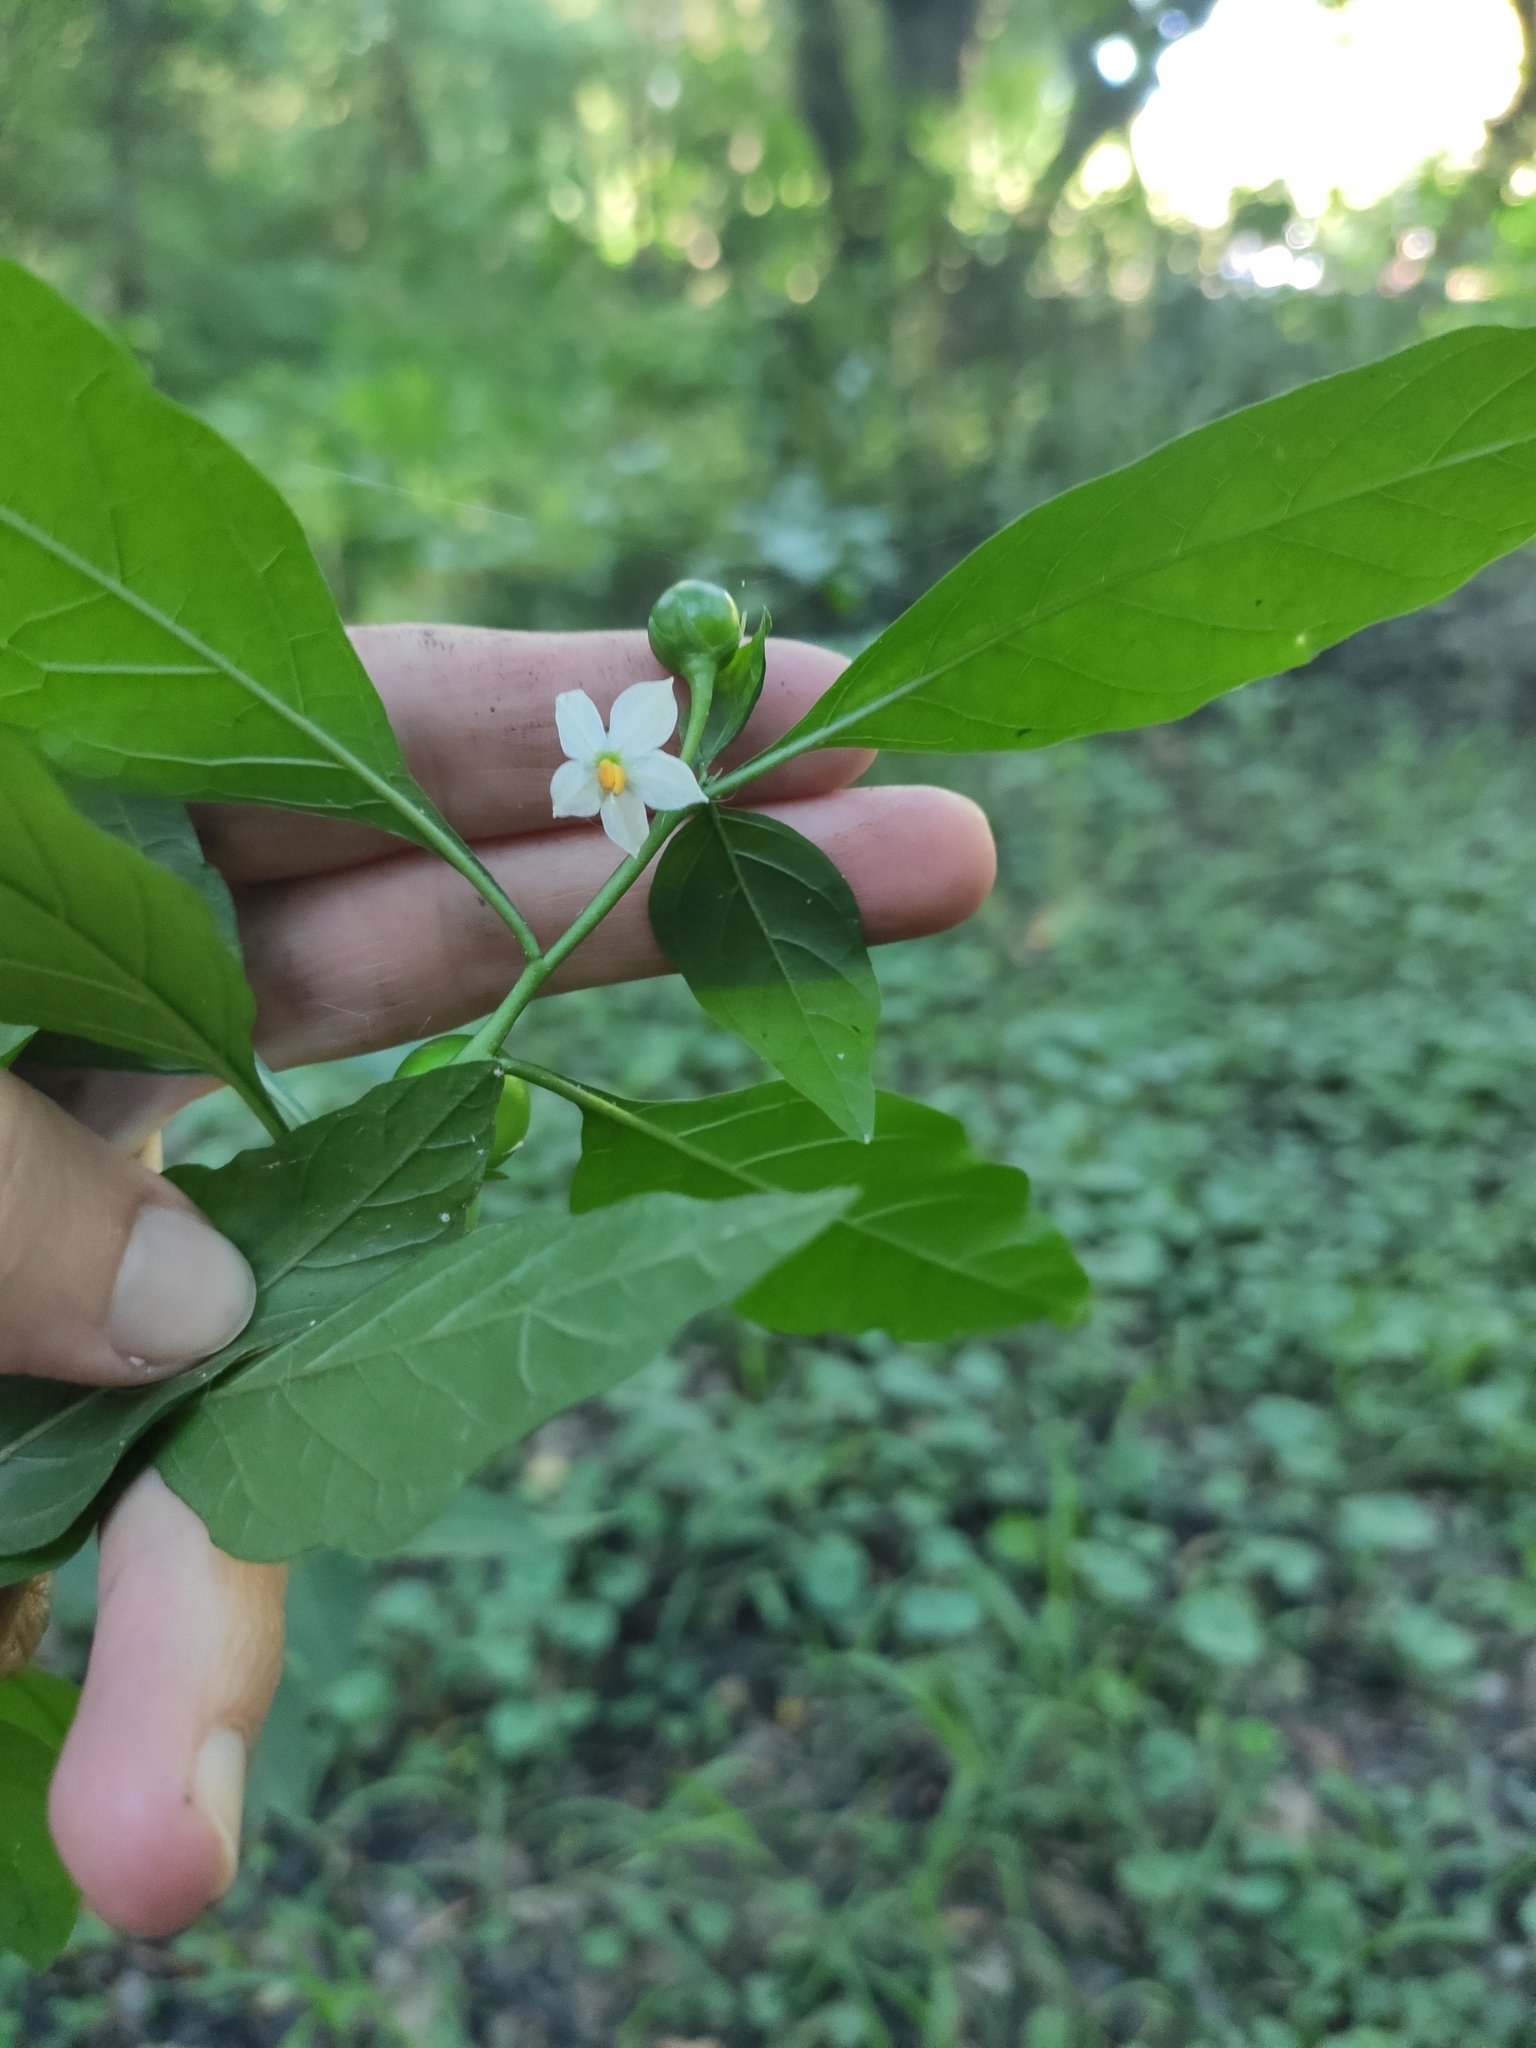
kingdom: Plantae
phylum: Tracheophyta
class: Magnoliopsida
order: Solanales
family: Solanaceae
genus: Solanum
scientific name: Solanum pseudocapsicum
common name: Jerusalem cherry
